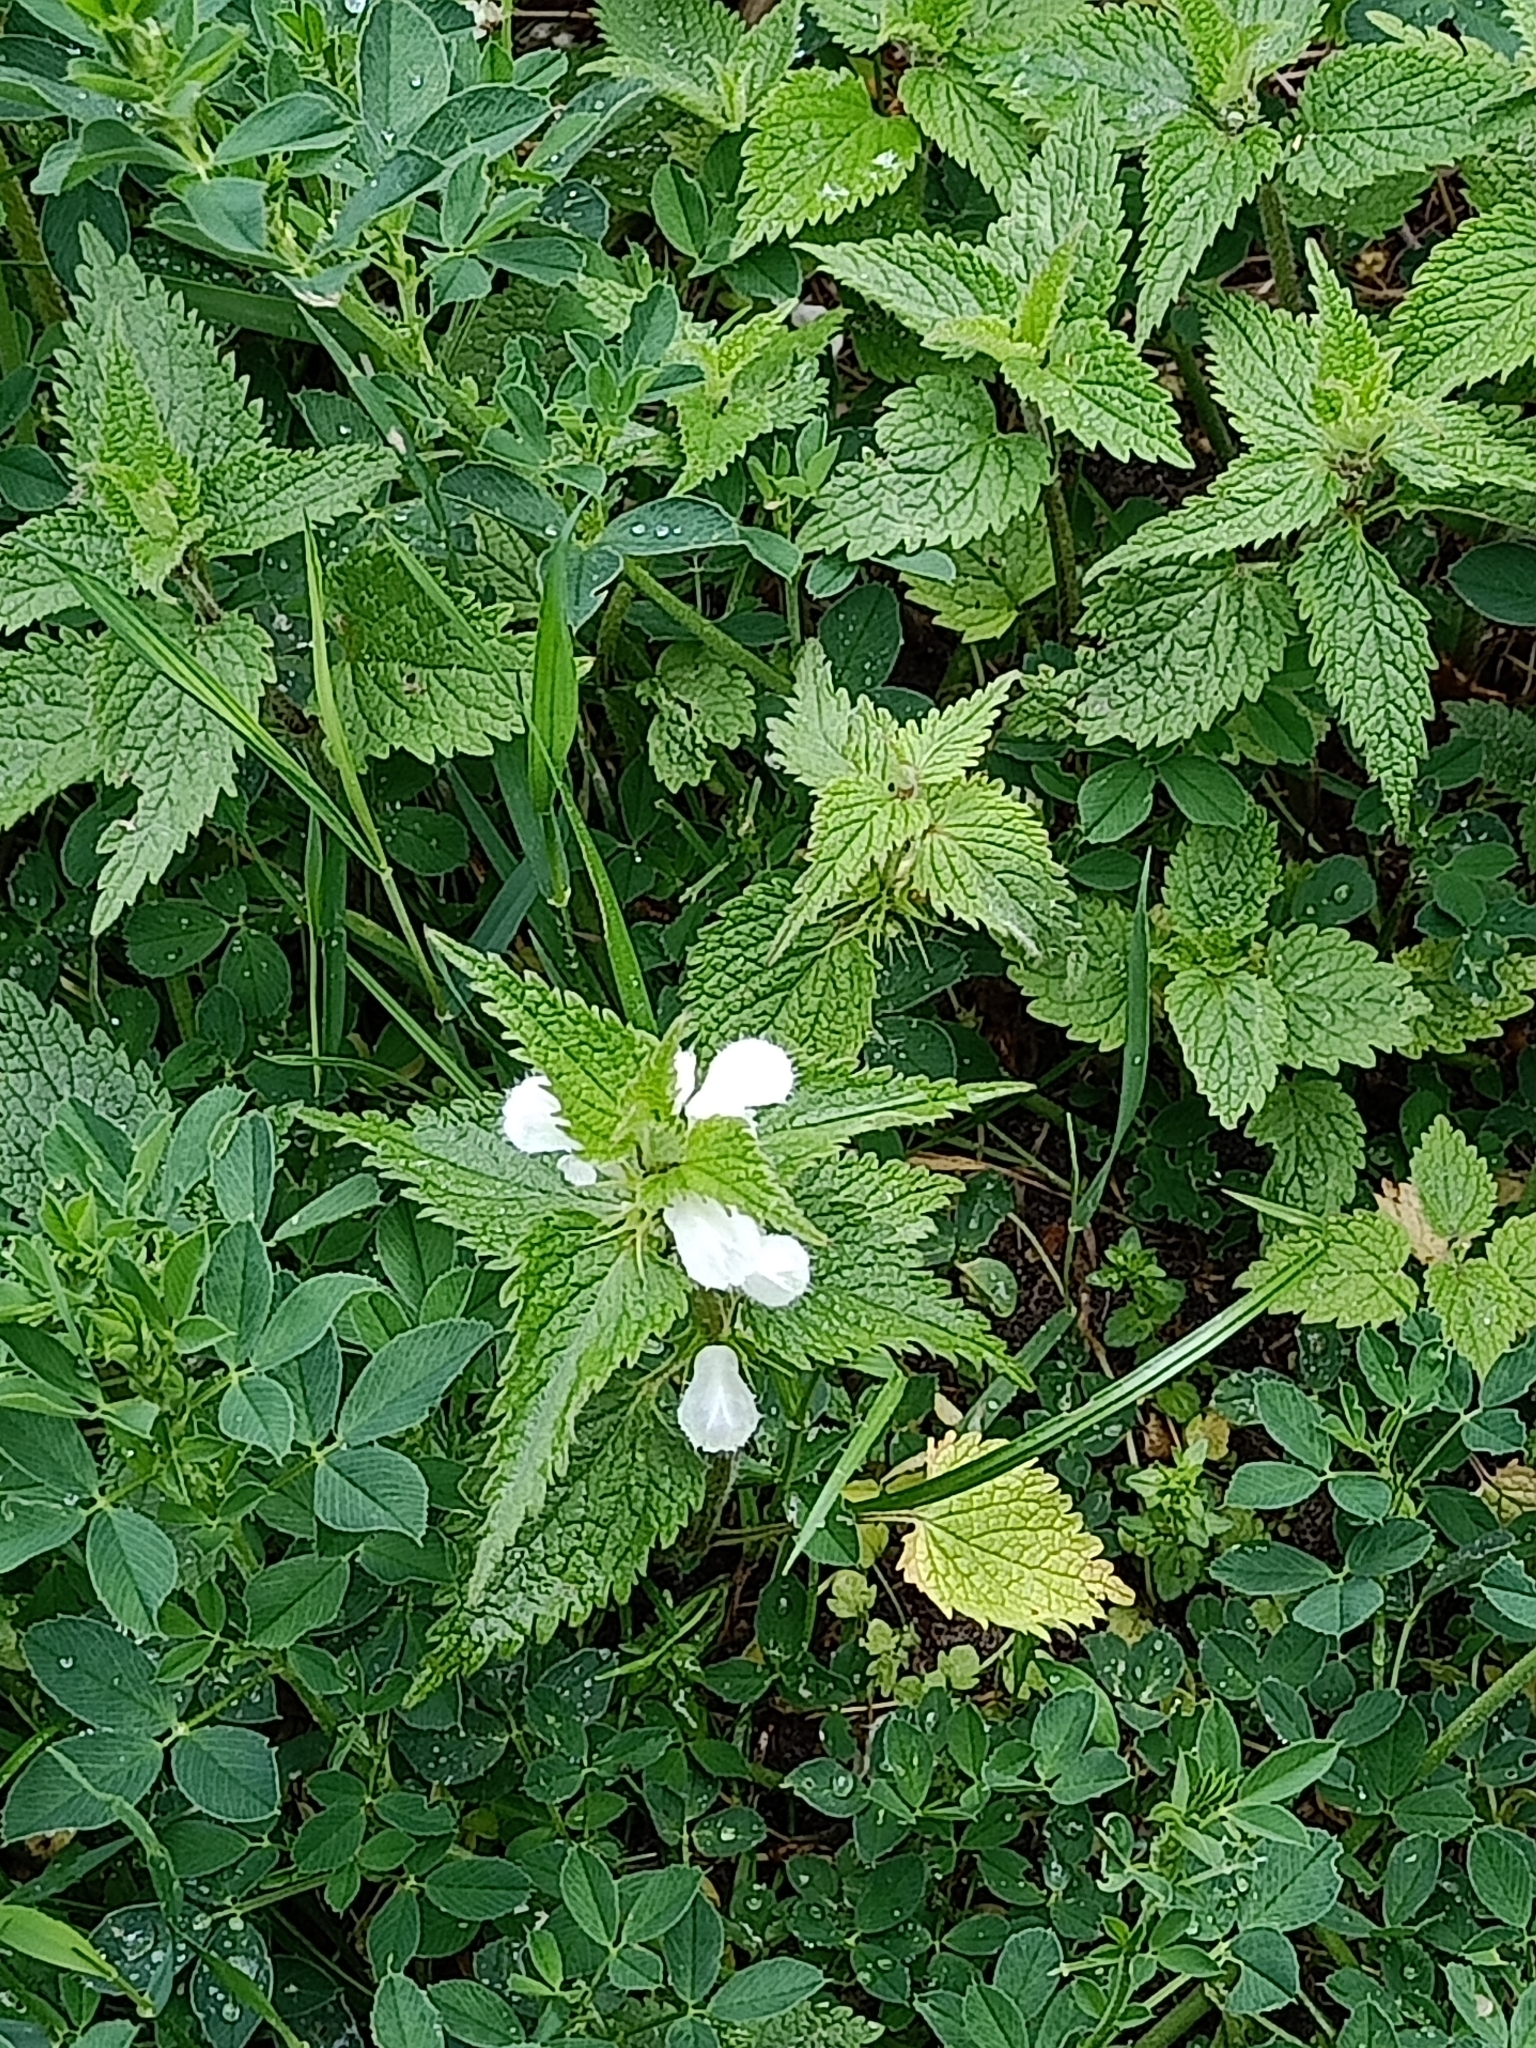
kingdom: Plantae
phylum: Tracheophyta
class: Magnoliopsida
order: Lamiales
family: Lamiaceae
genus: Lamium
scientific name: Lamium album
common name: White dead-nettle
